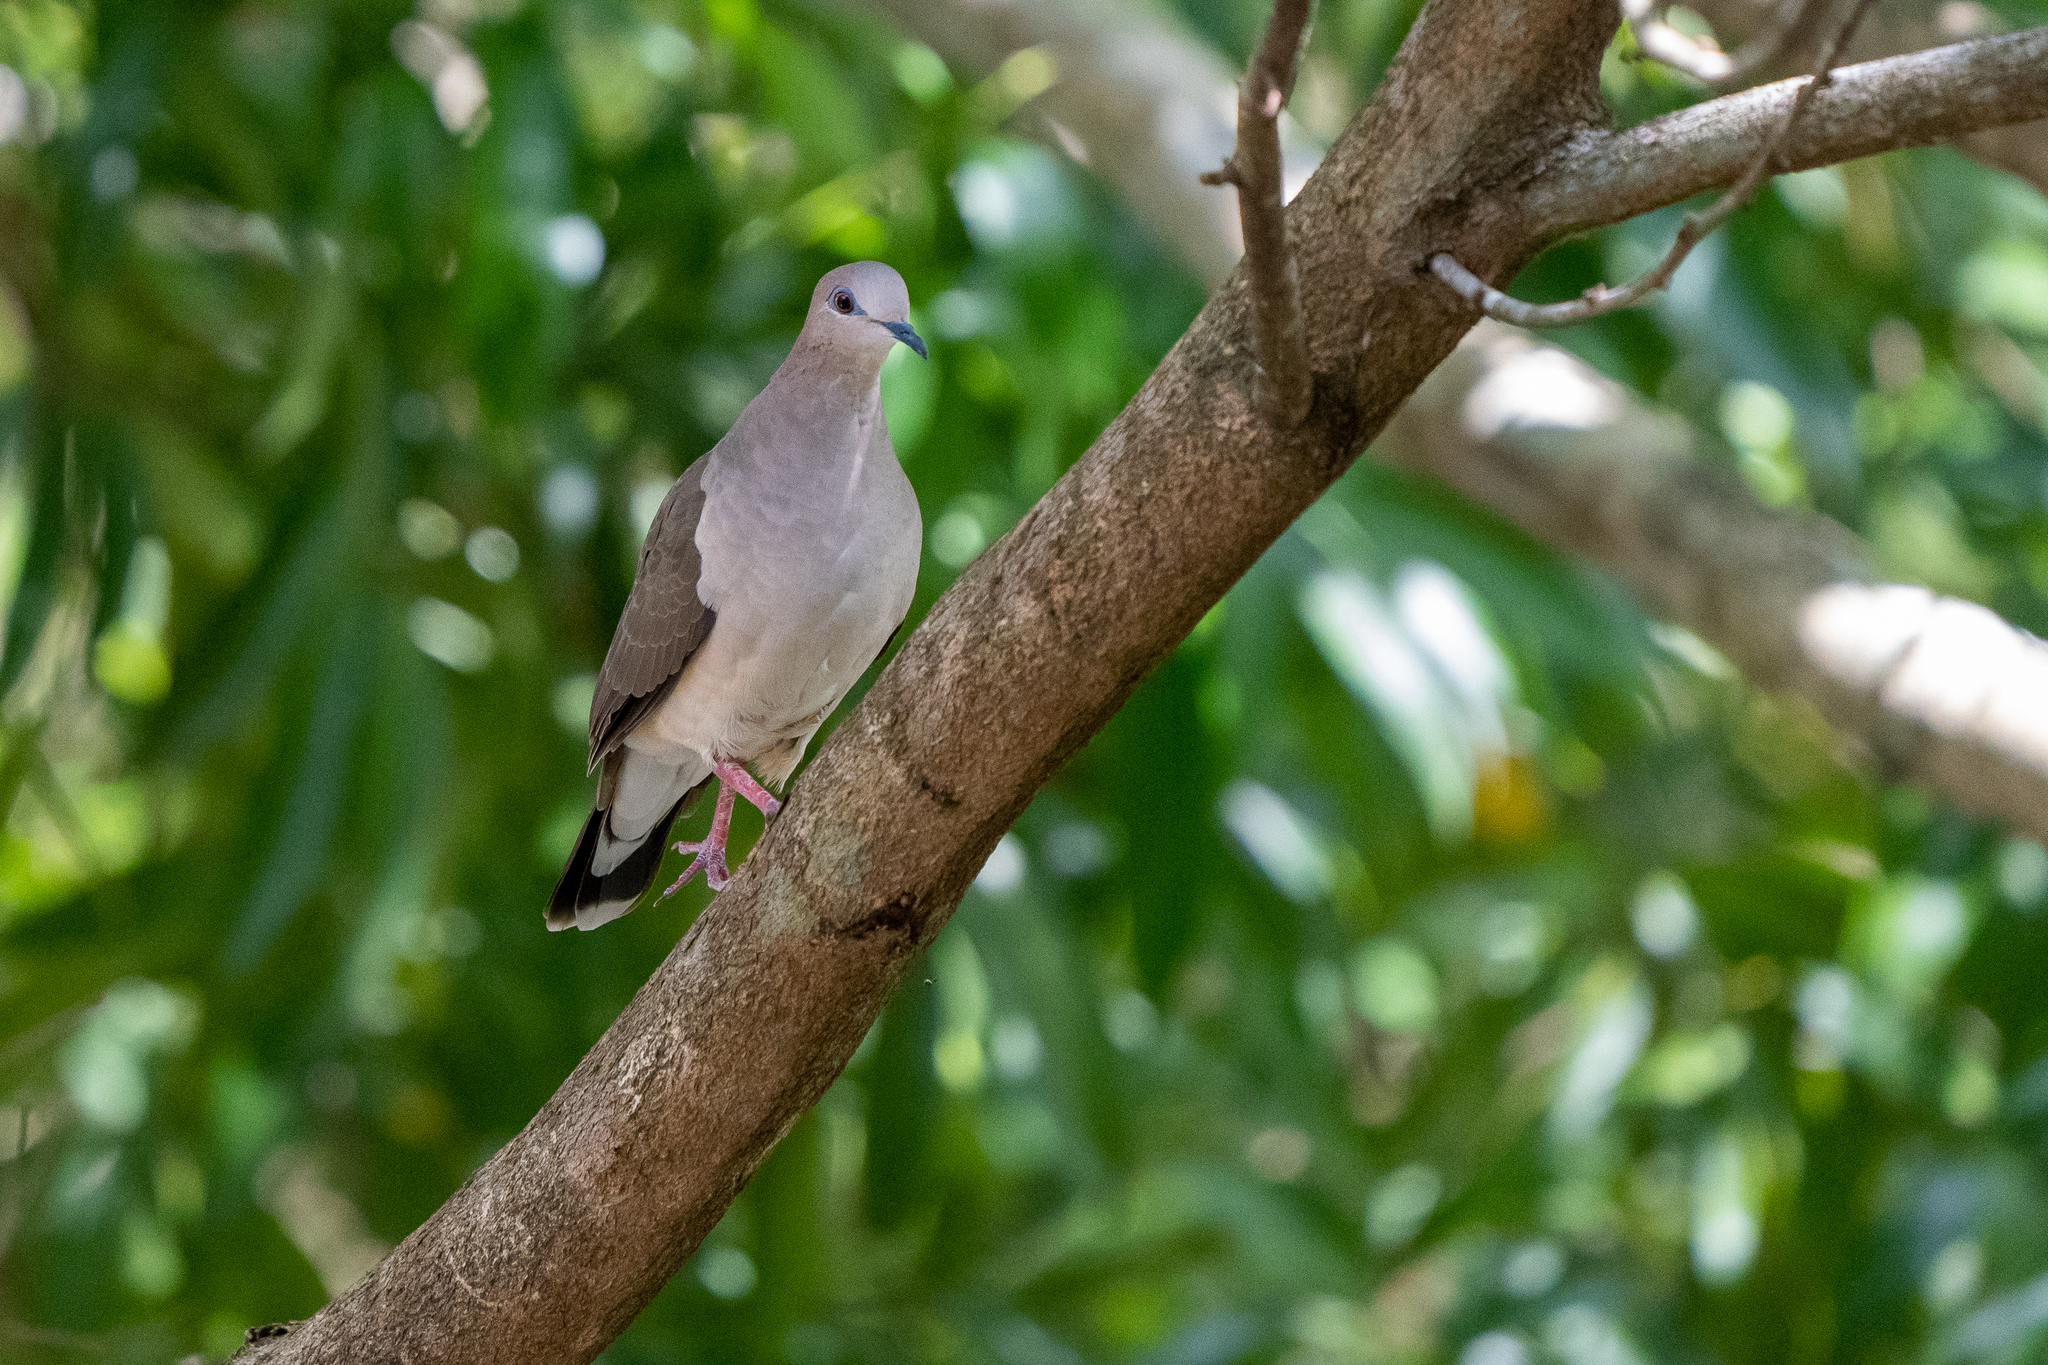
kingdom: Animalia
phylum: Chordata
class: Aves
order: Columbiformes
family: Columbidae
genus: Leptotila
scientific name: Leptotila verreauxi
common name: White-tipped dove
